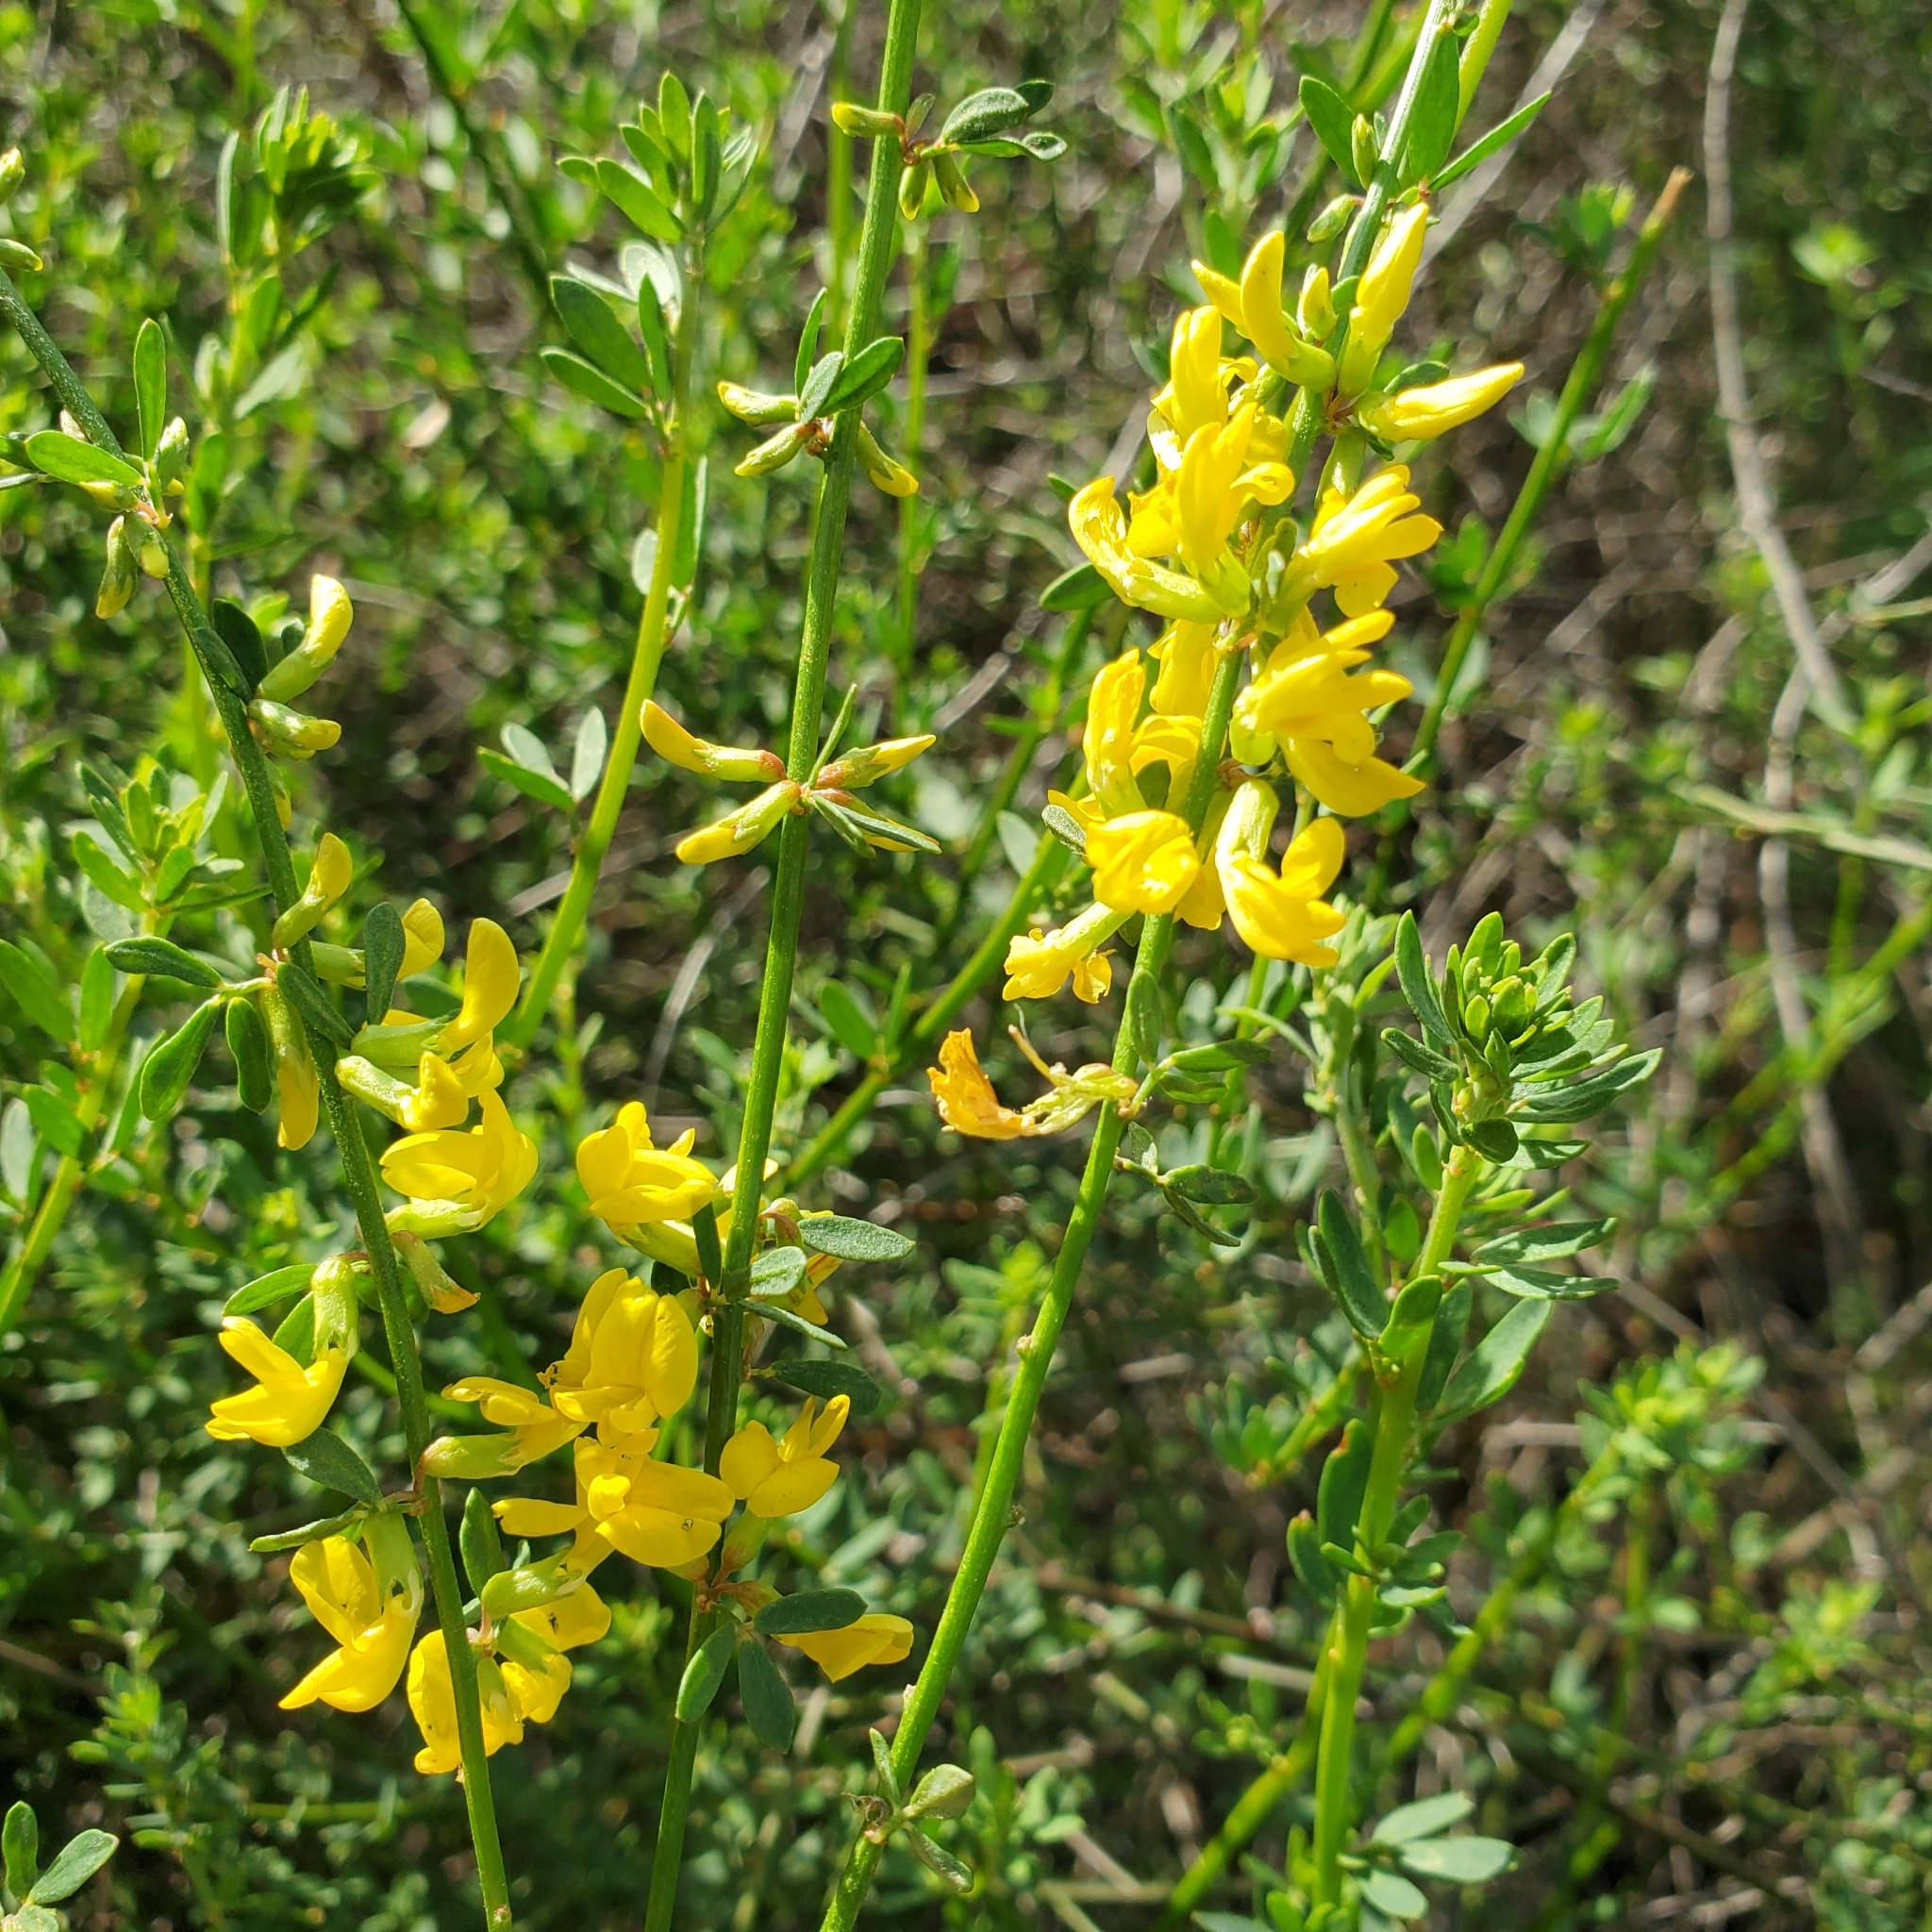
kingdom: Plantae
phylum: Tracheophyta
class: Magnoliopsida
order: Fabales
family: Fabaceae
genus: Acmispon
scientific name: Acmispon glaber
